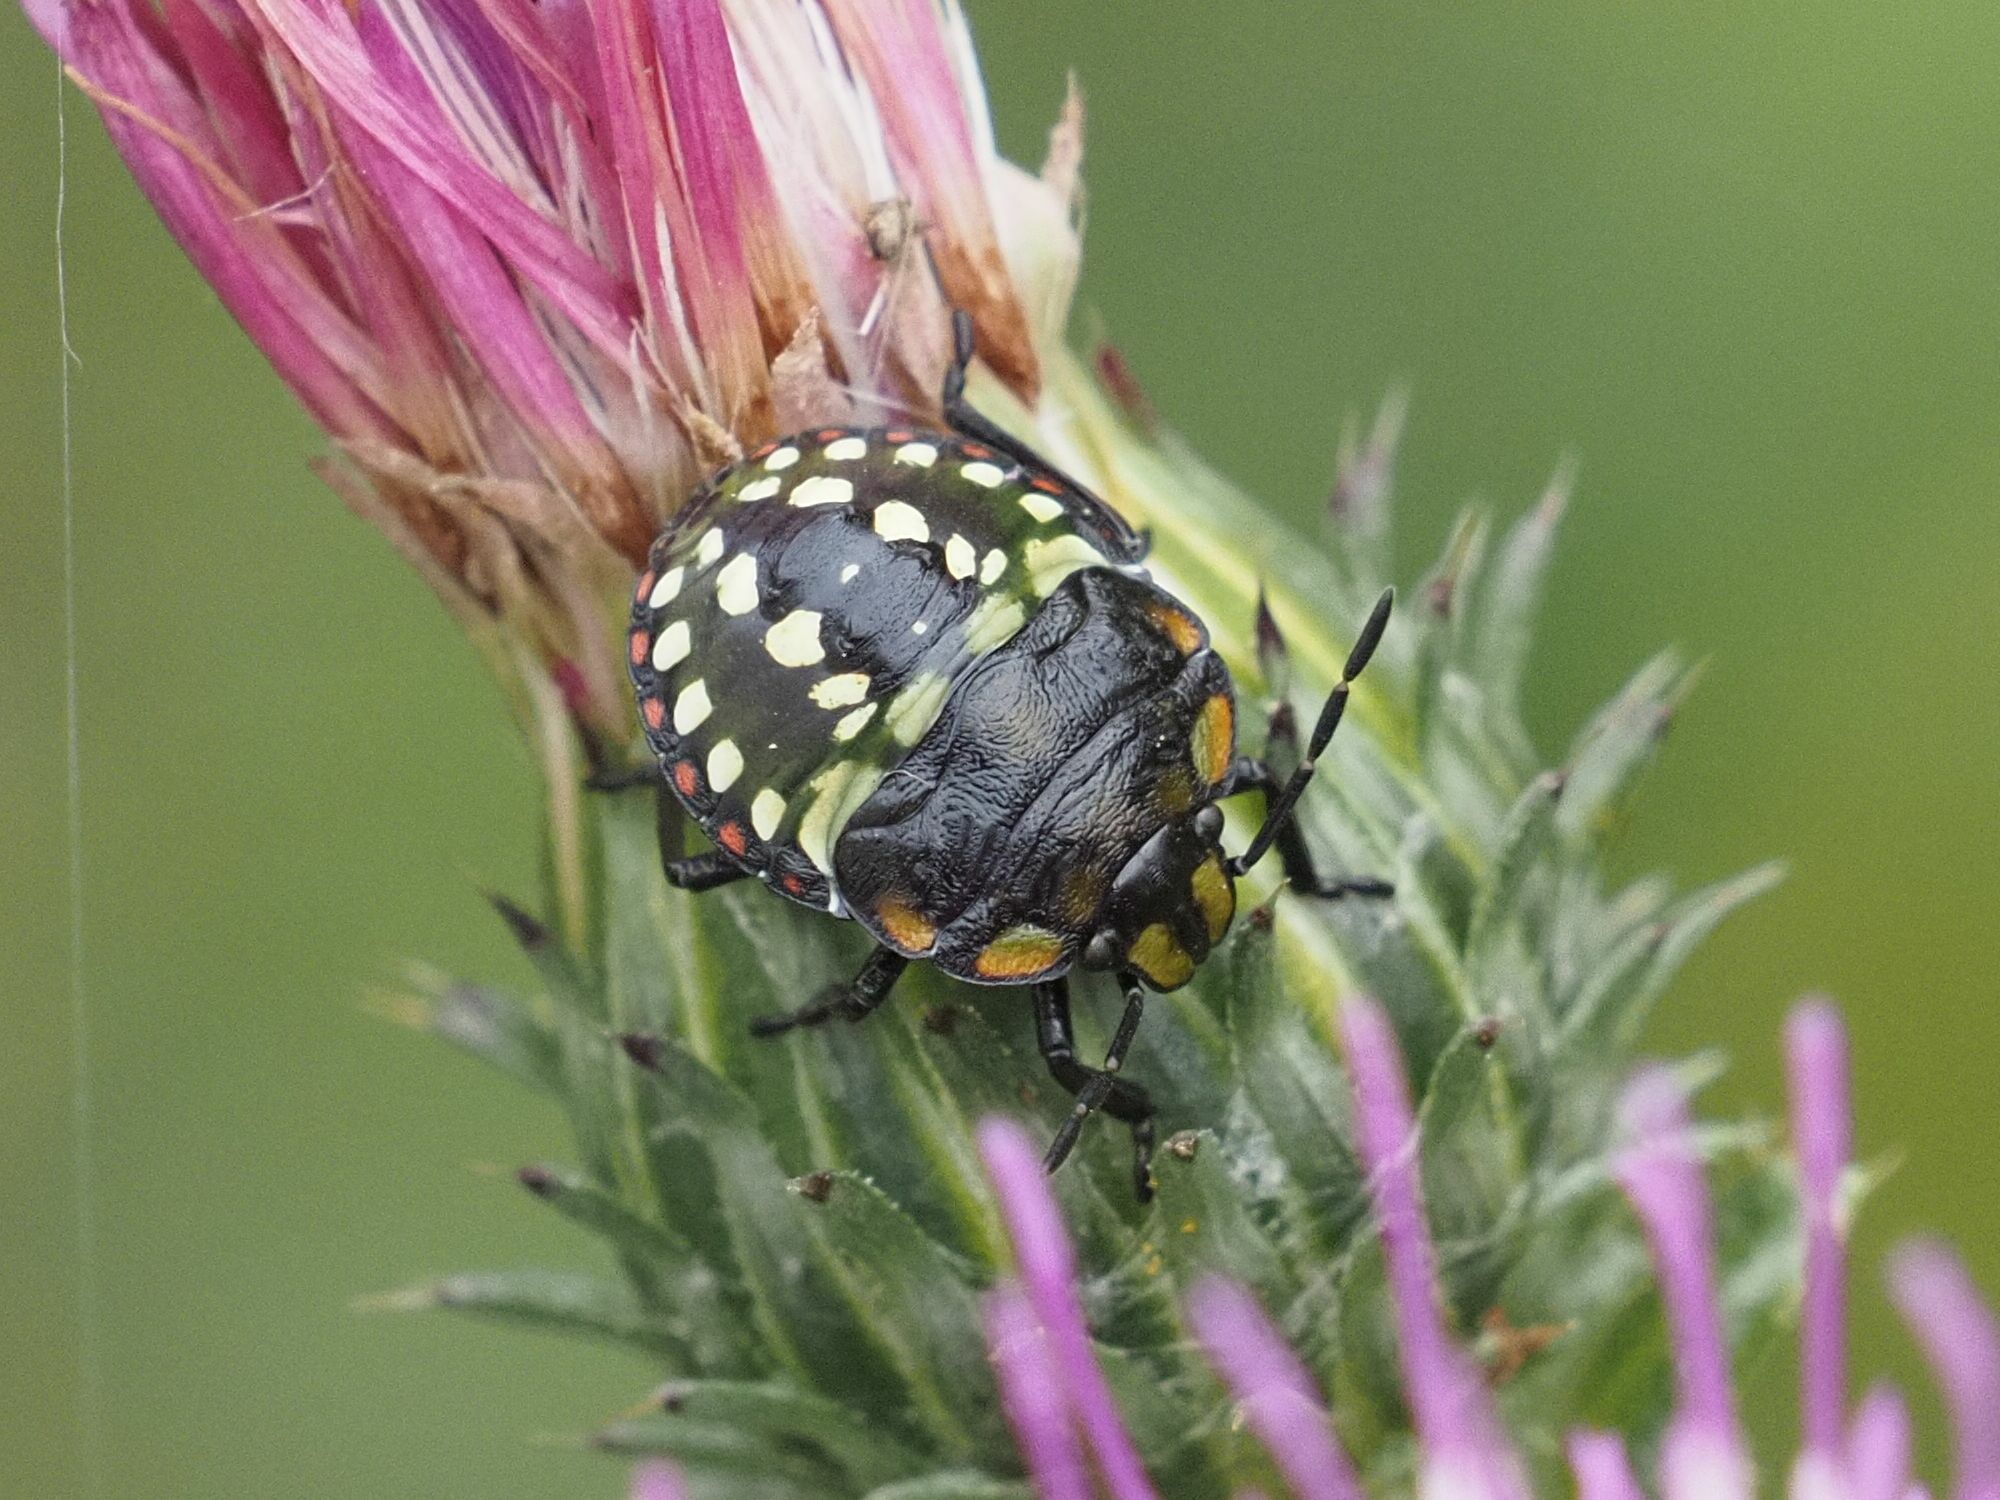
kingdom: Animalia
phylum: Arthropoda
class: Insecta
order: Hemiptera
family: Pentatomidae
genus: Nezara
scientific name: Nezara viridula
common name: Southern green stink bug
